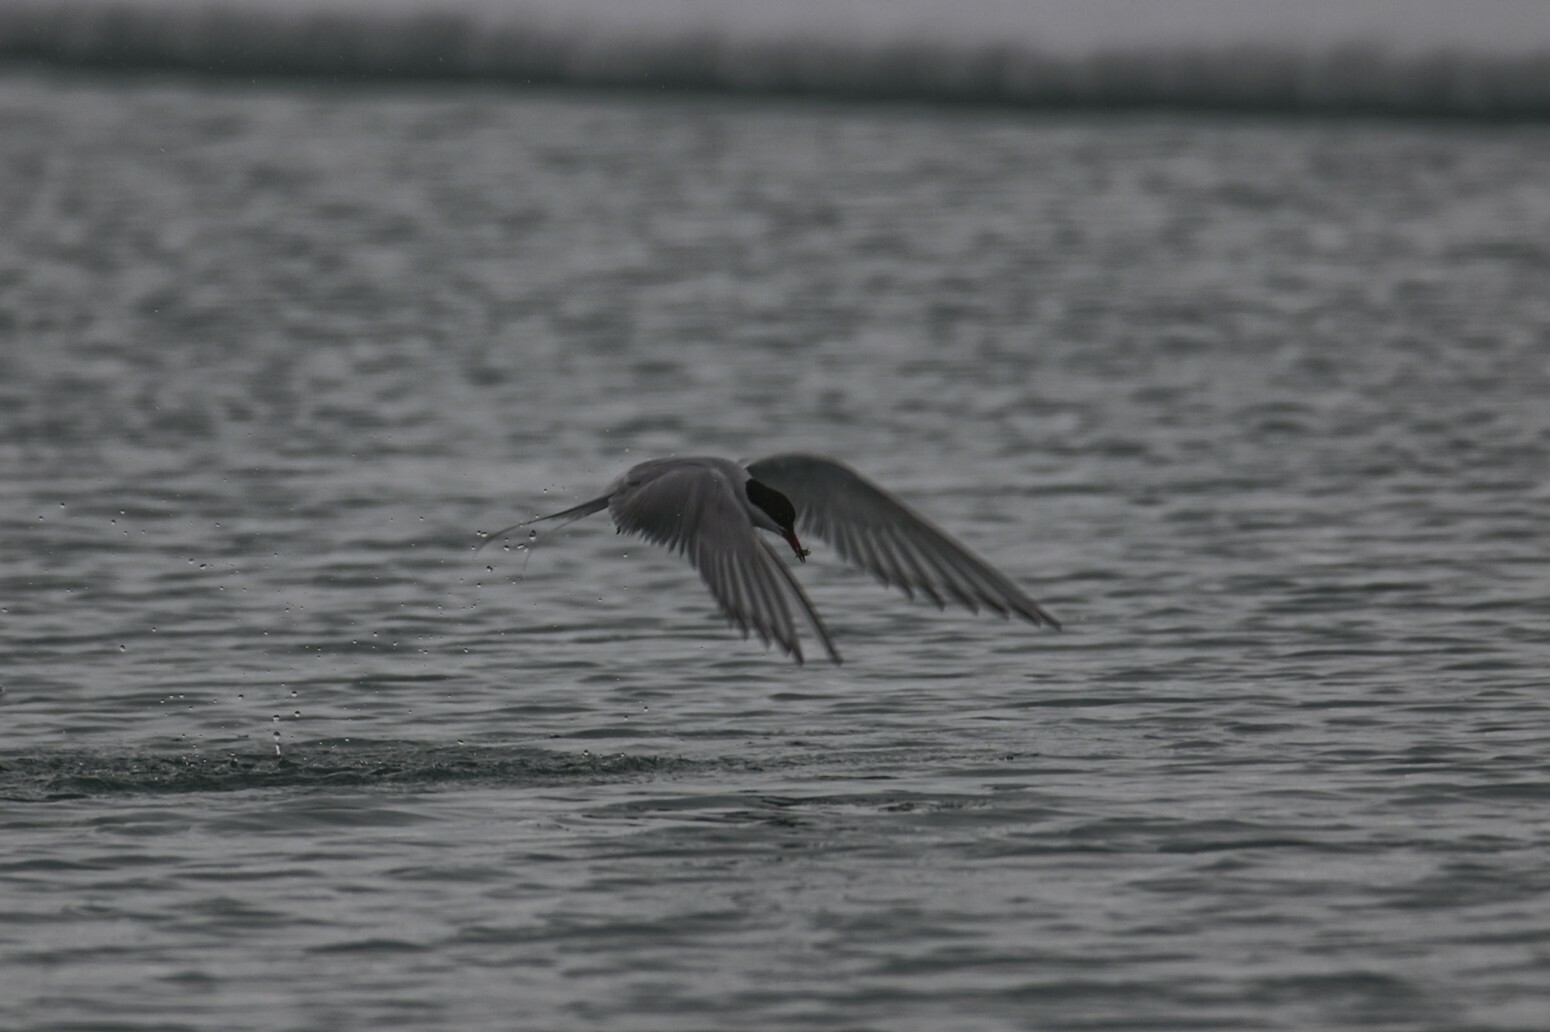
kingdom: Animalia
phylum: Chordata
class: Aves
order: Charadriiformes
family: Laridae
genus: Sterna
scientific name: Sterna paradisaea
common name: Arctic tern
